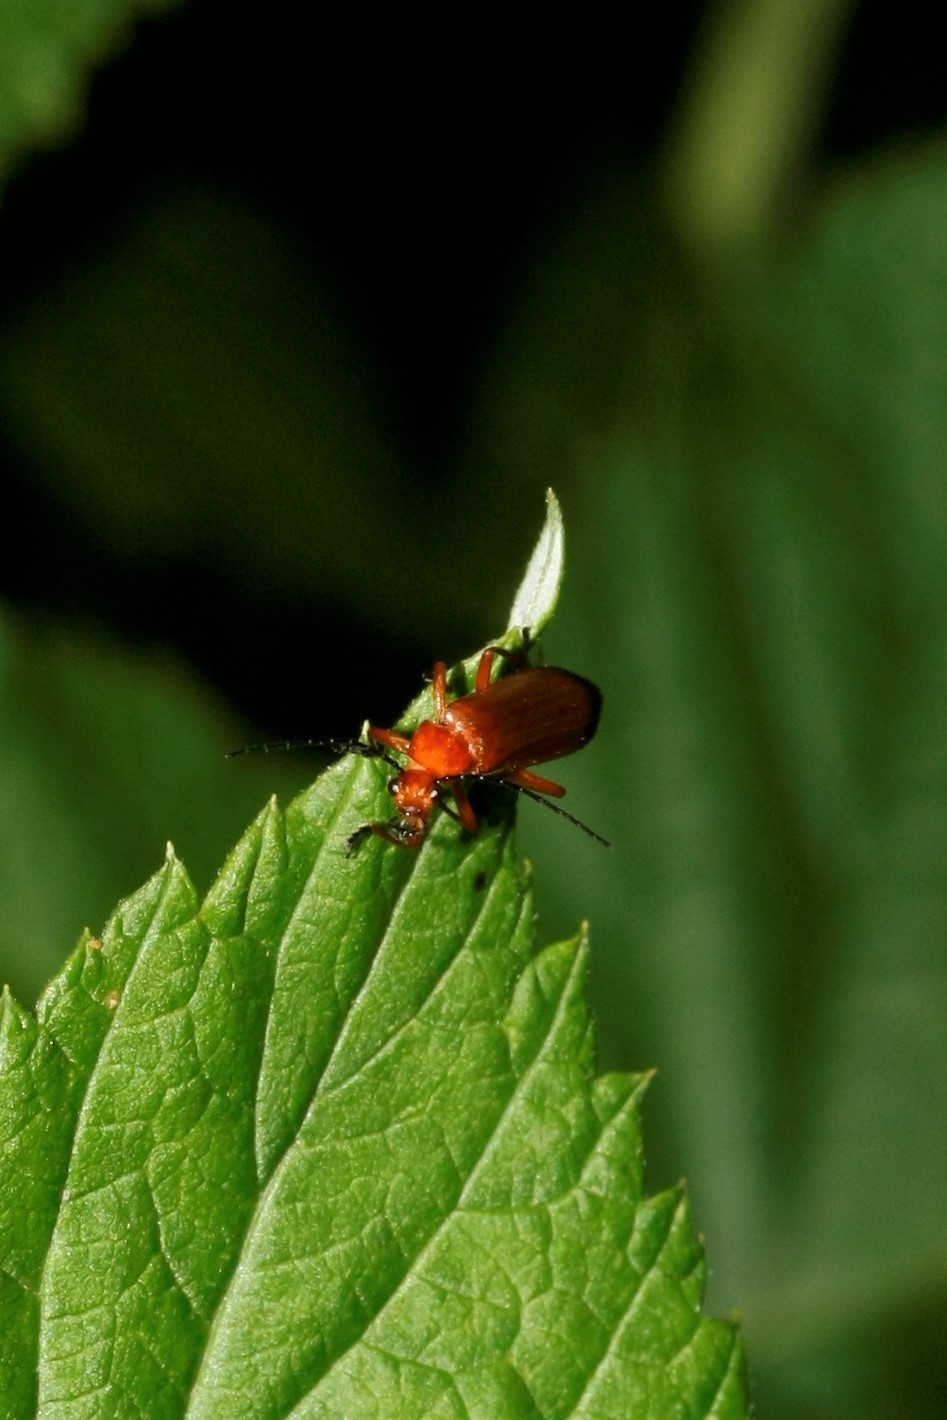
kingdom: Animalia
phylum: Arthropoda
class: Insecta
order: Coleoptera
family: Cantharidae
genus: Rhagonycha
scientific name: Rhagonycha fulva
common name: Common red soldier beetle
